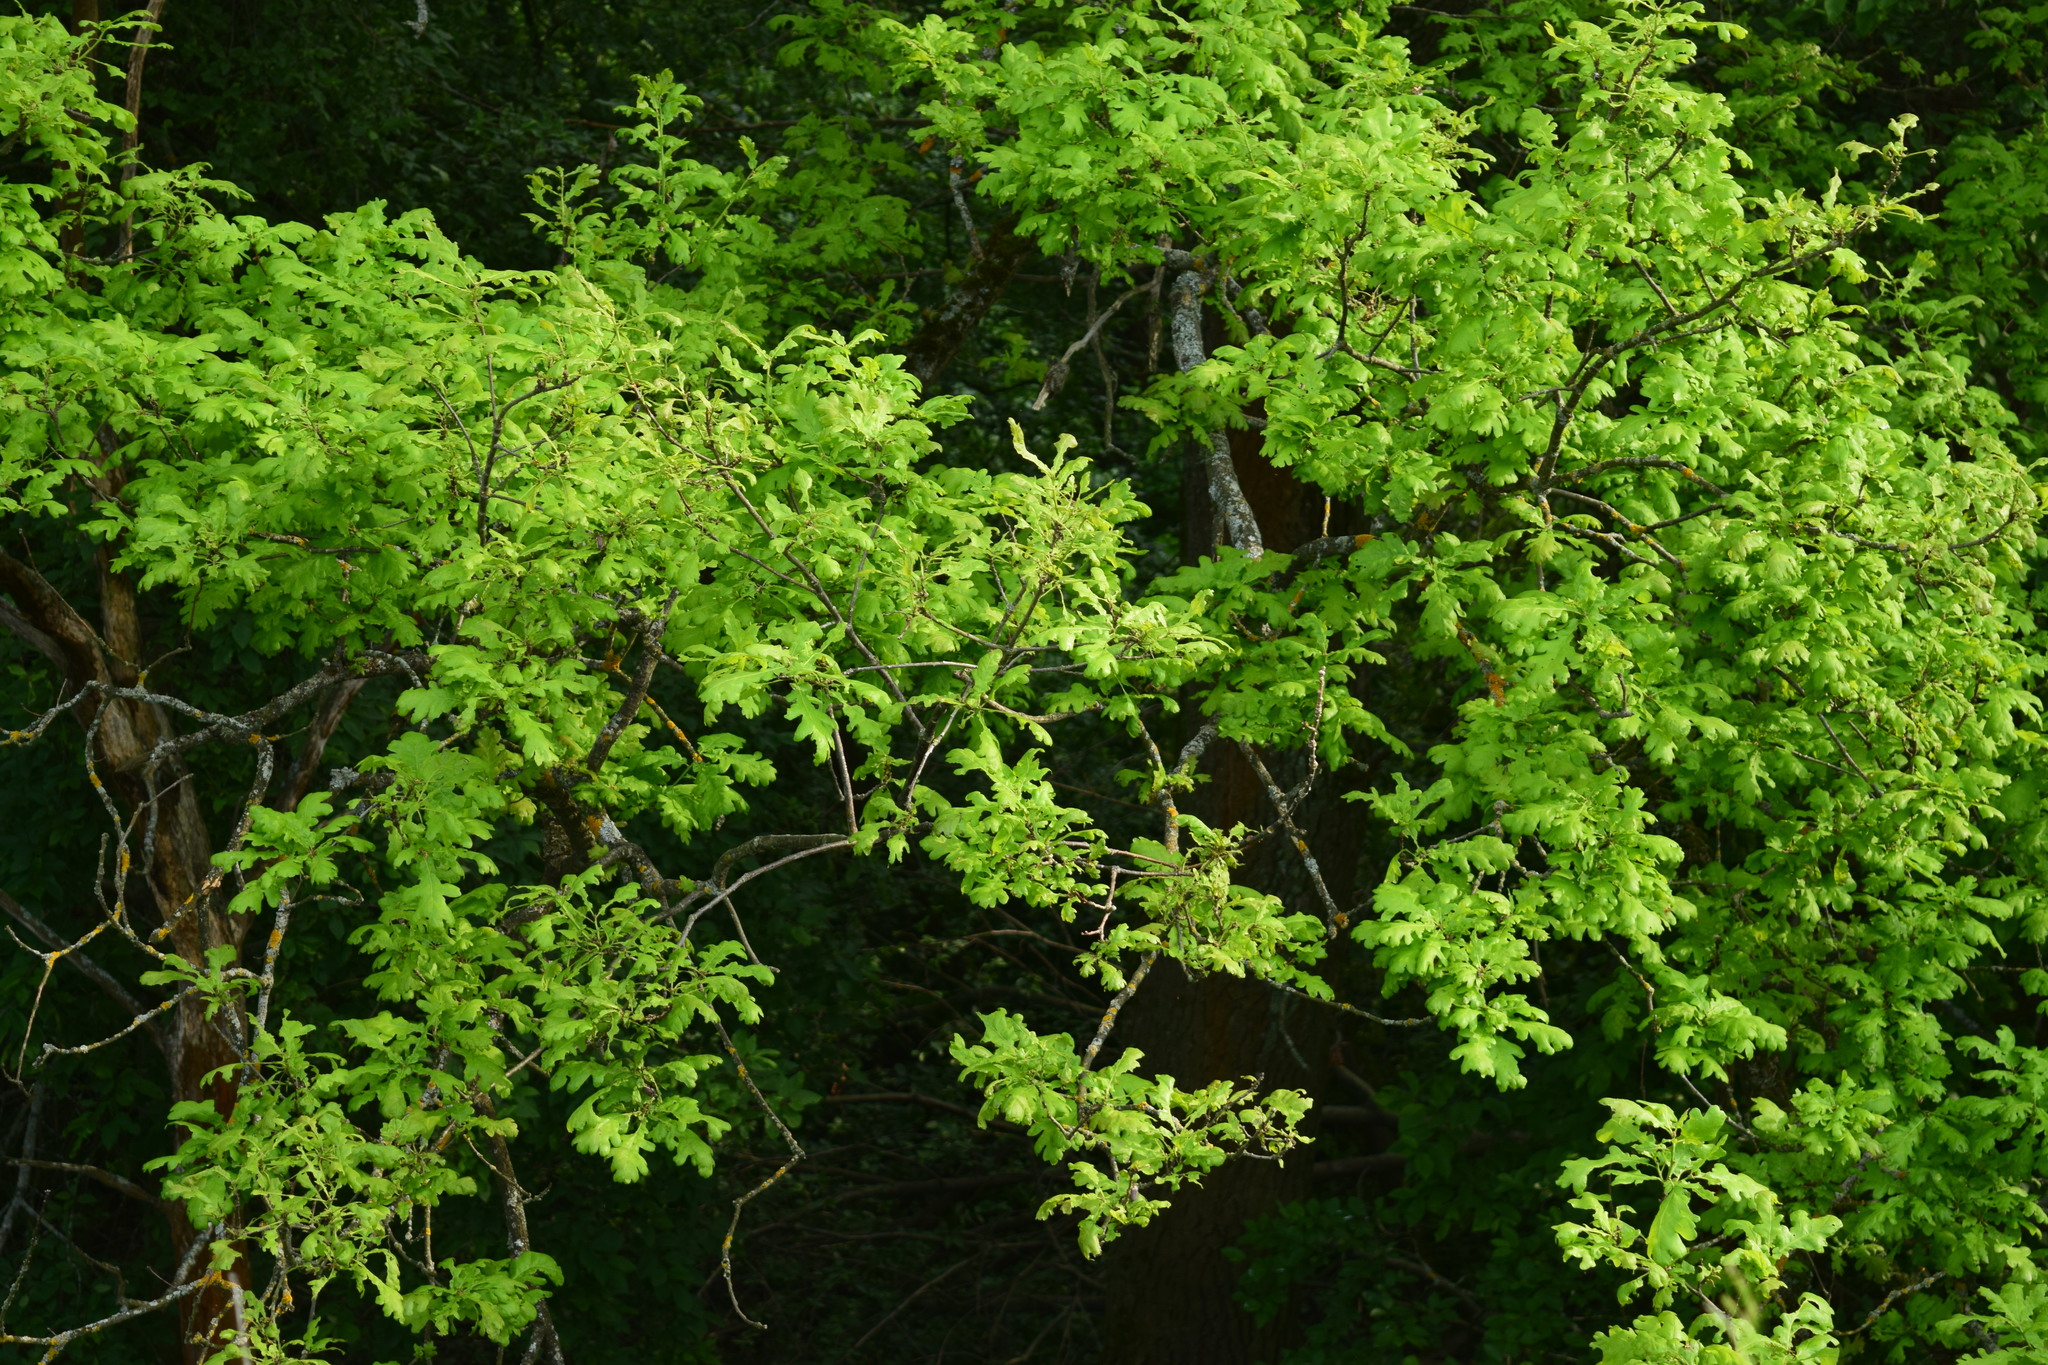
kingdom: Plantae
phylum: Tracheophyta
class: Magnoliopsida
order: Fagales
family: Fagaceae
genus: Quercus
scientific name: Quercus robur
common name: Pedunculate oak
